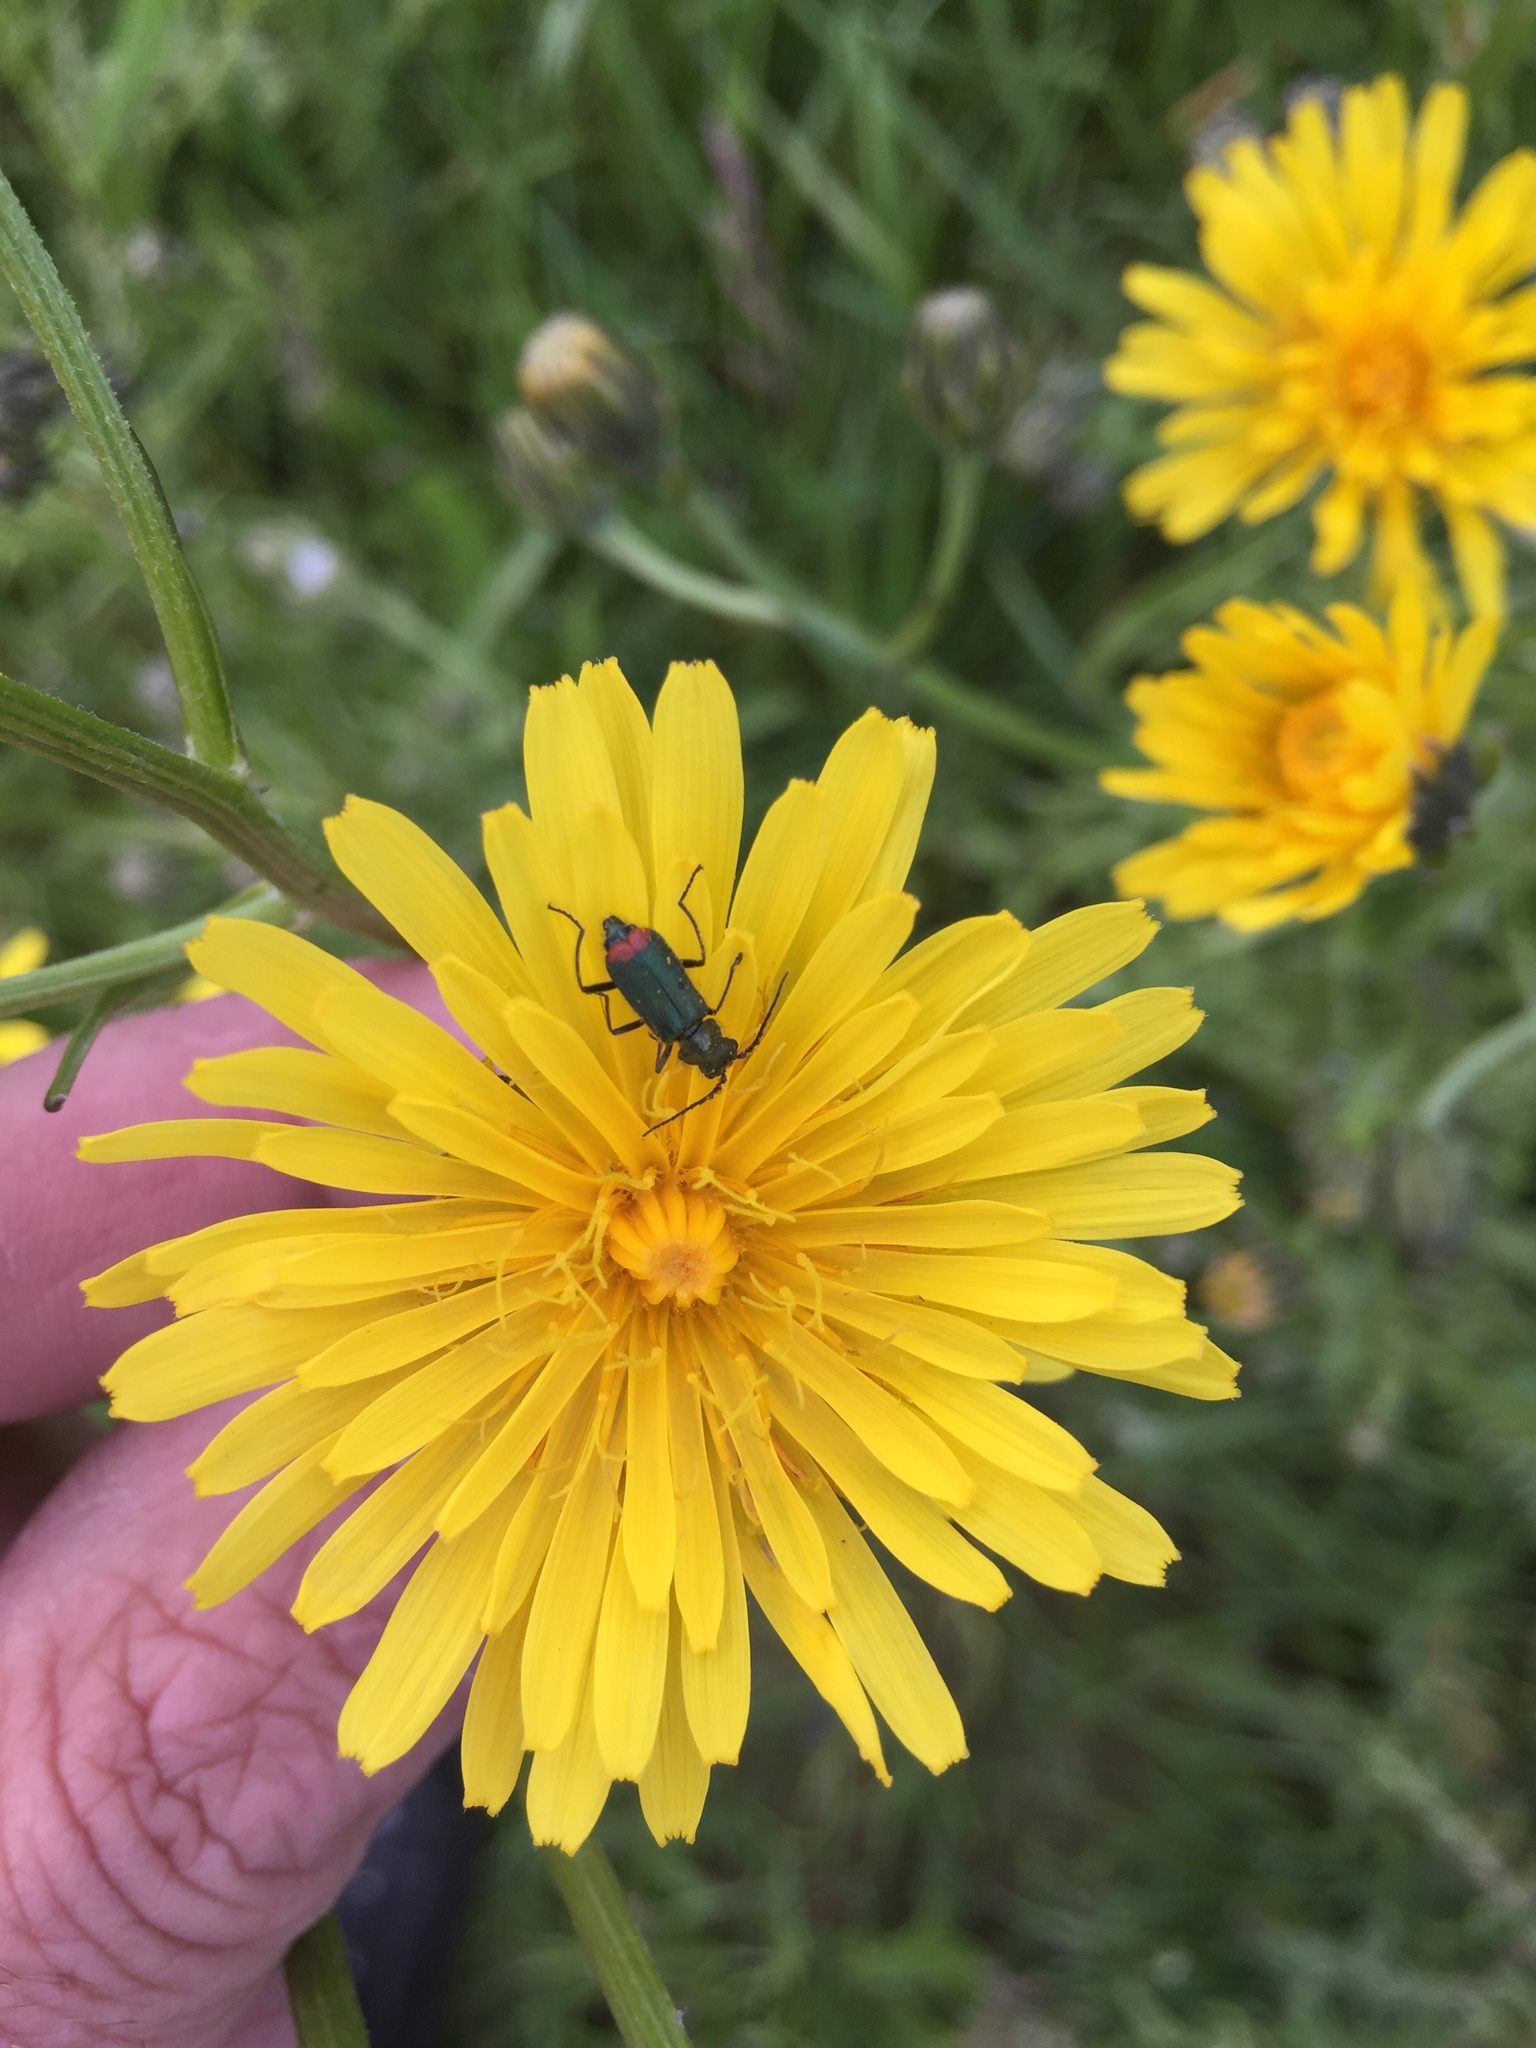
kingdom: Animalia
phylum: Arthropoda
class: Insecta
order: Coleoptera
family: Melyridae
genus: Malachius
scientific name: Malachius bipustulatus
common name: Malachite beetle
